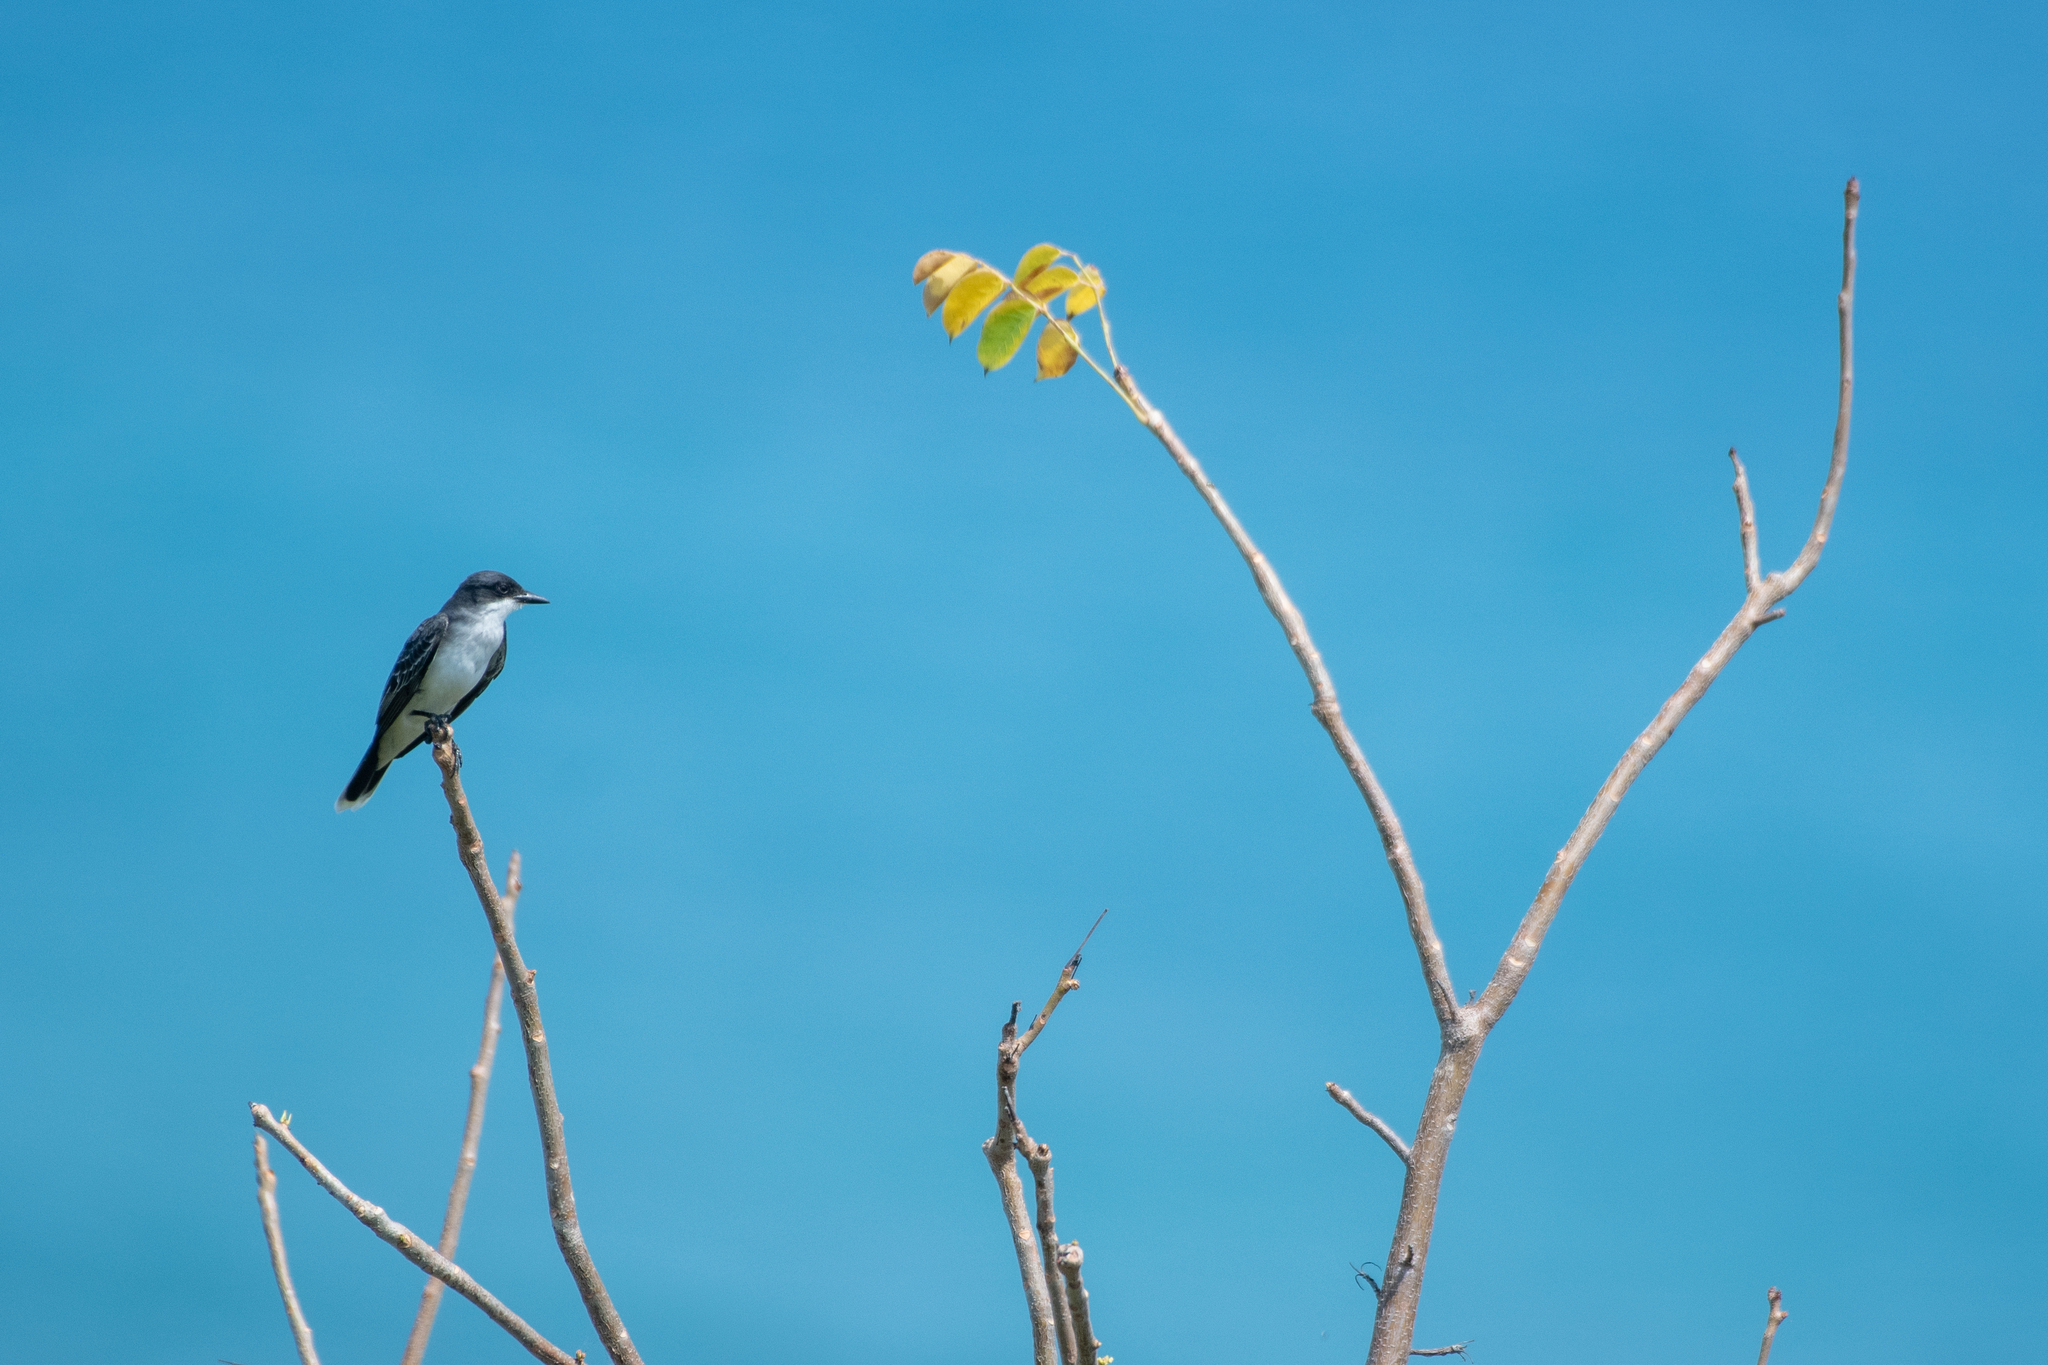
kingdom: Animalia
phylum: Chordata
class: Aves
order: Passeriformes
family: Tyrannidae
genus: Tyrannus
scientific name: Tyrannus tyrannus
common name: Eastern kingbird
